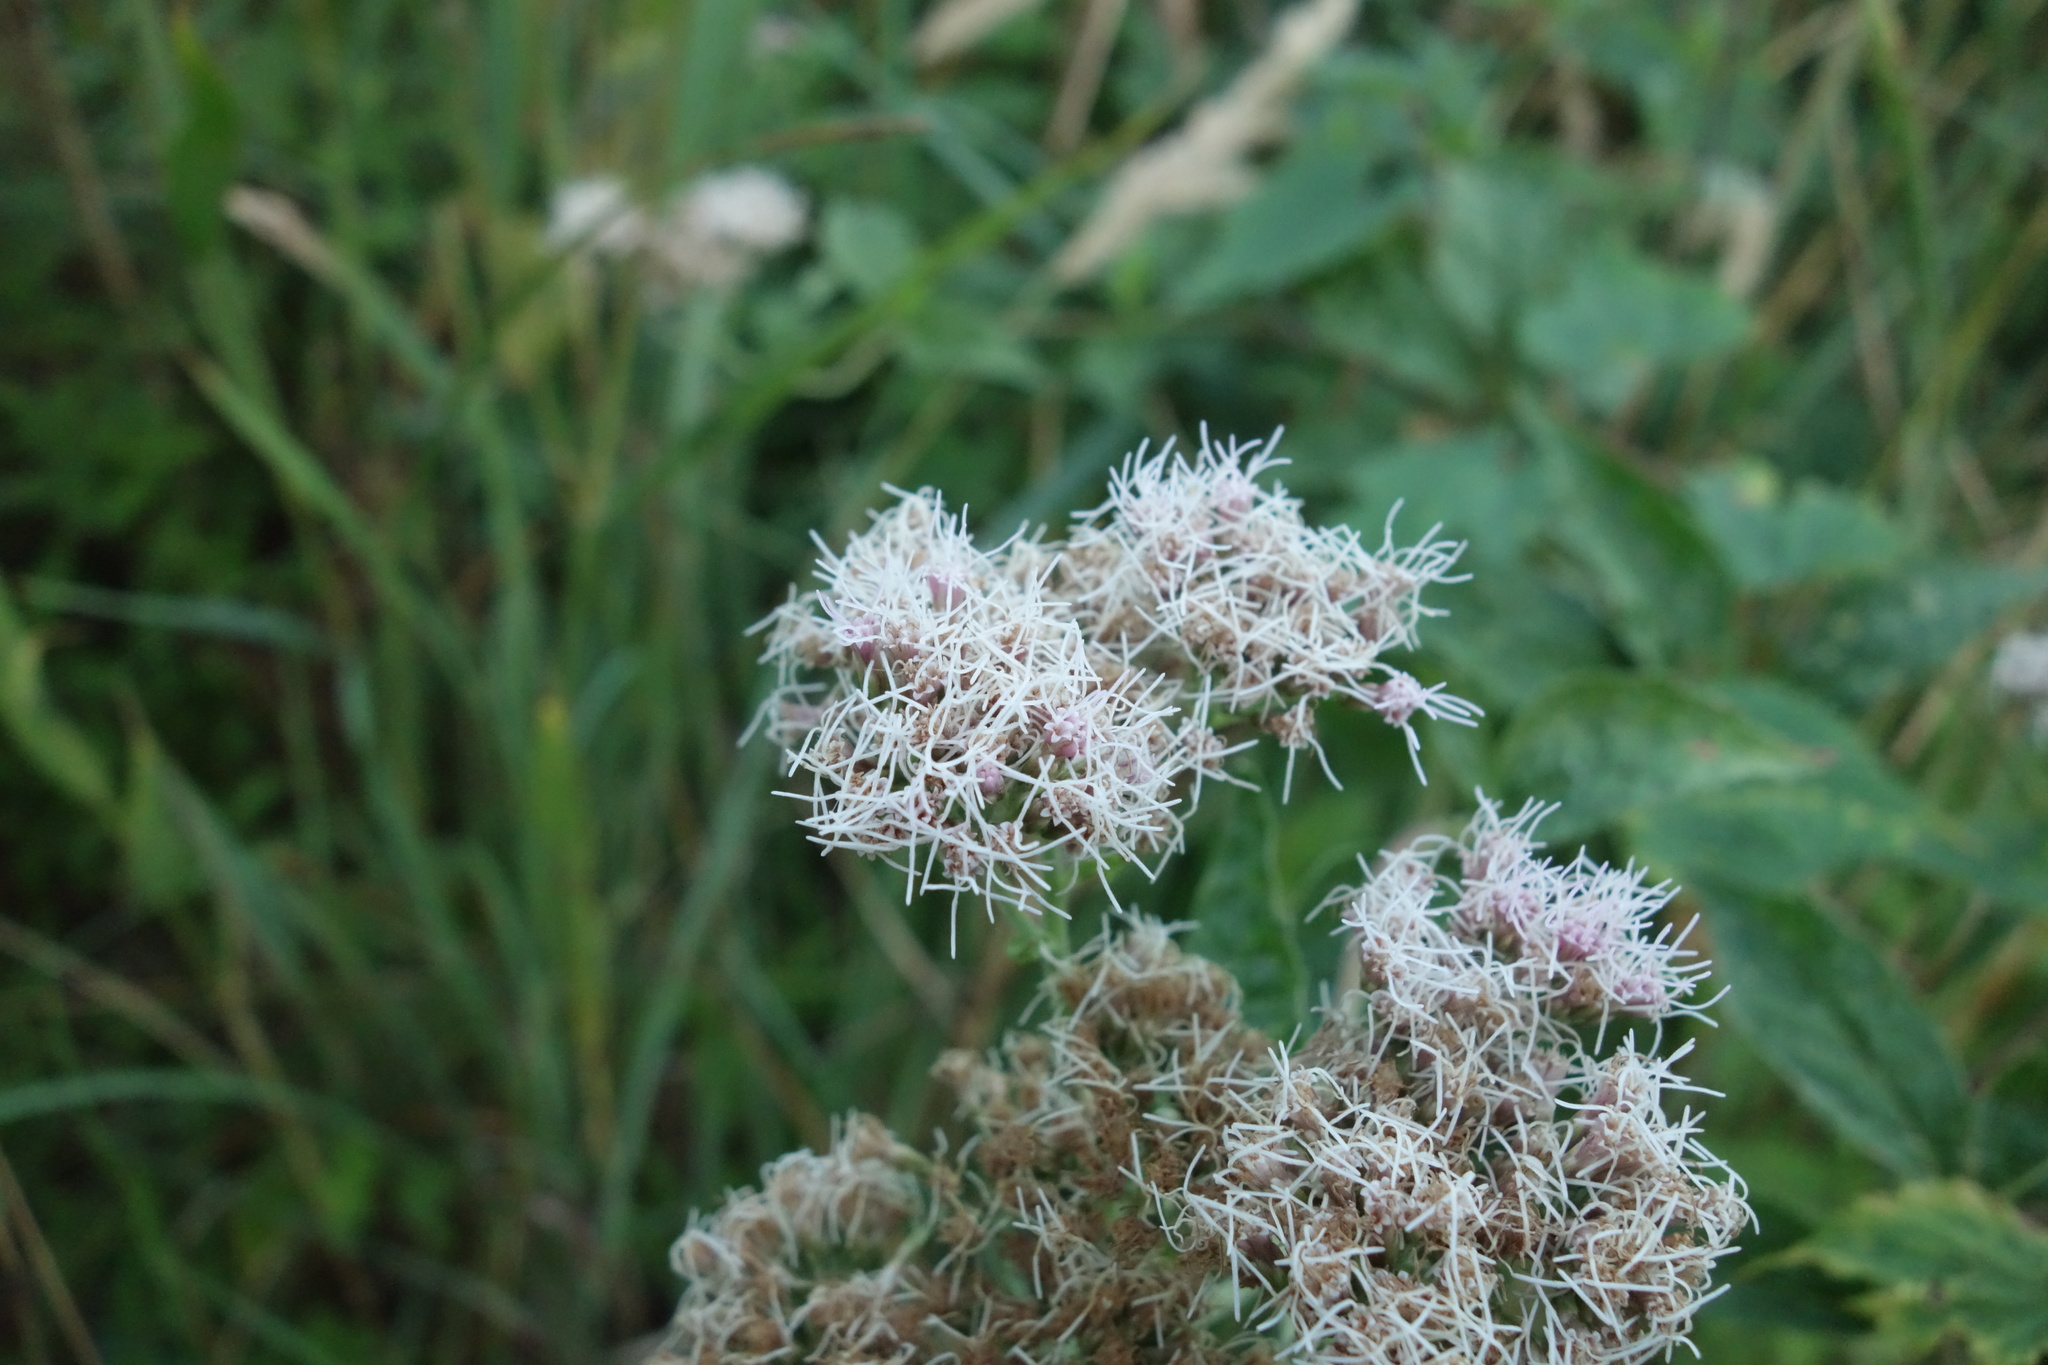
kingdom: Plantae
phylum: Tracheophyta
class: Magnoliopsida
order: Asterales
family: Asteraceae
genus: Eupatorium
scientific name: Eupatorium cannabinum
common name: Hemp-agrimony
